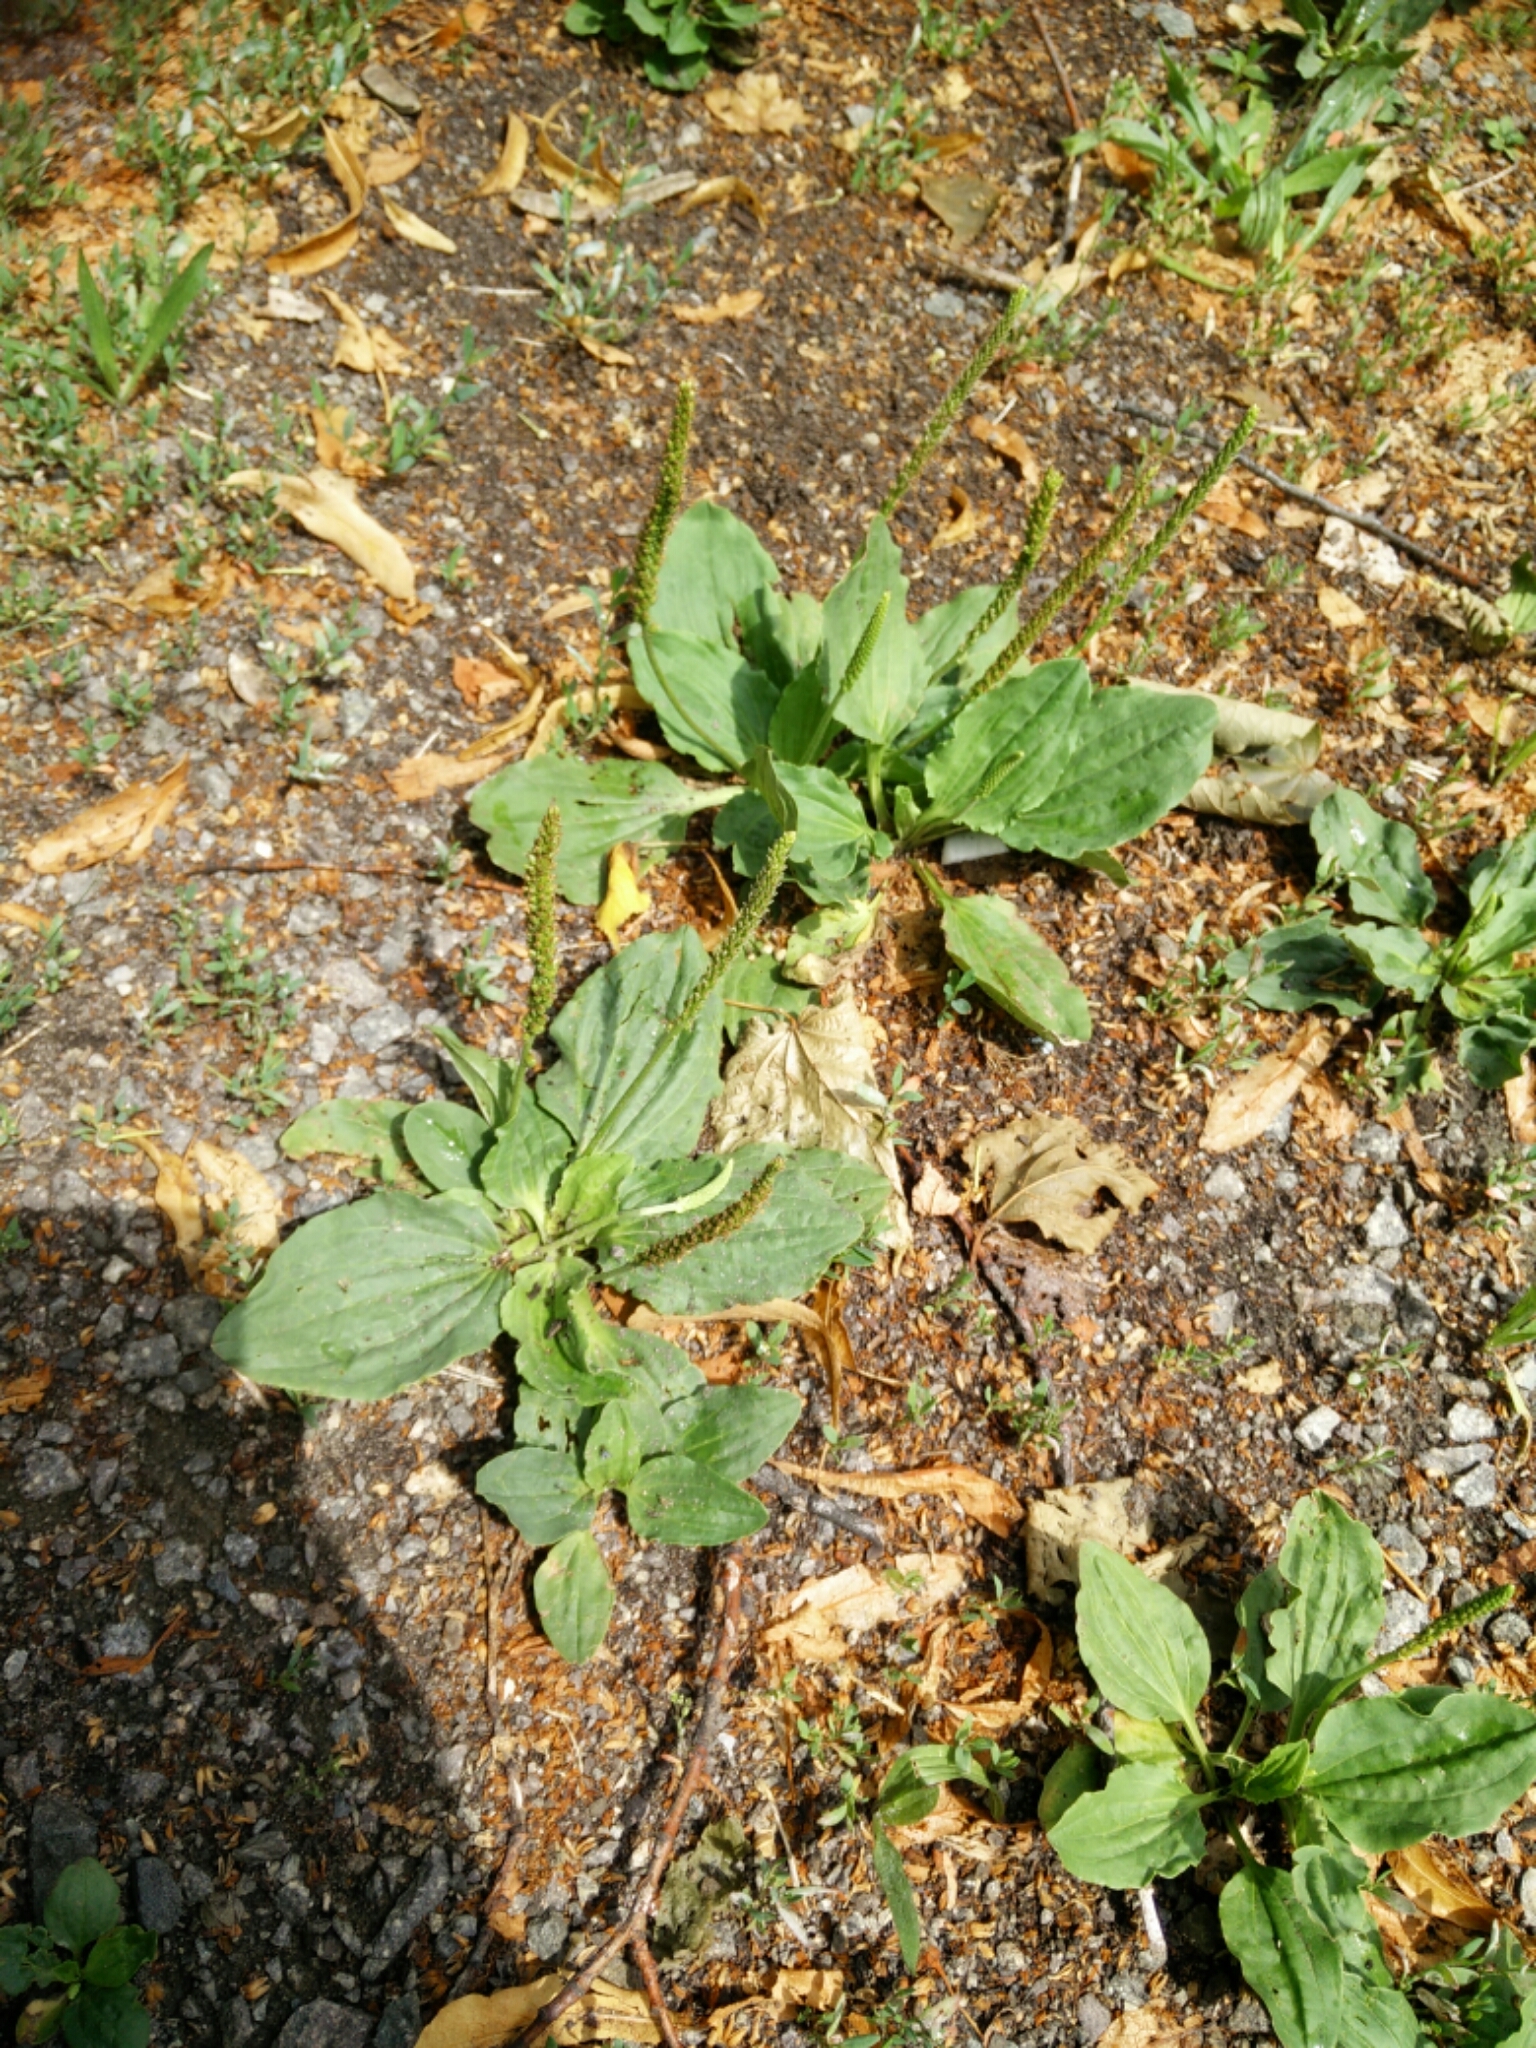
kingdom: Plantae
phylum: Tracheophyta
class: Magnoliopsida
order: Lamiales
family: Plantaginaceae
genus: Plantago
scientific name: Plantago major
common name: Common plantain
